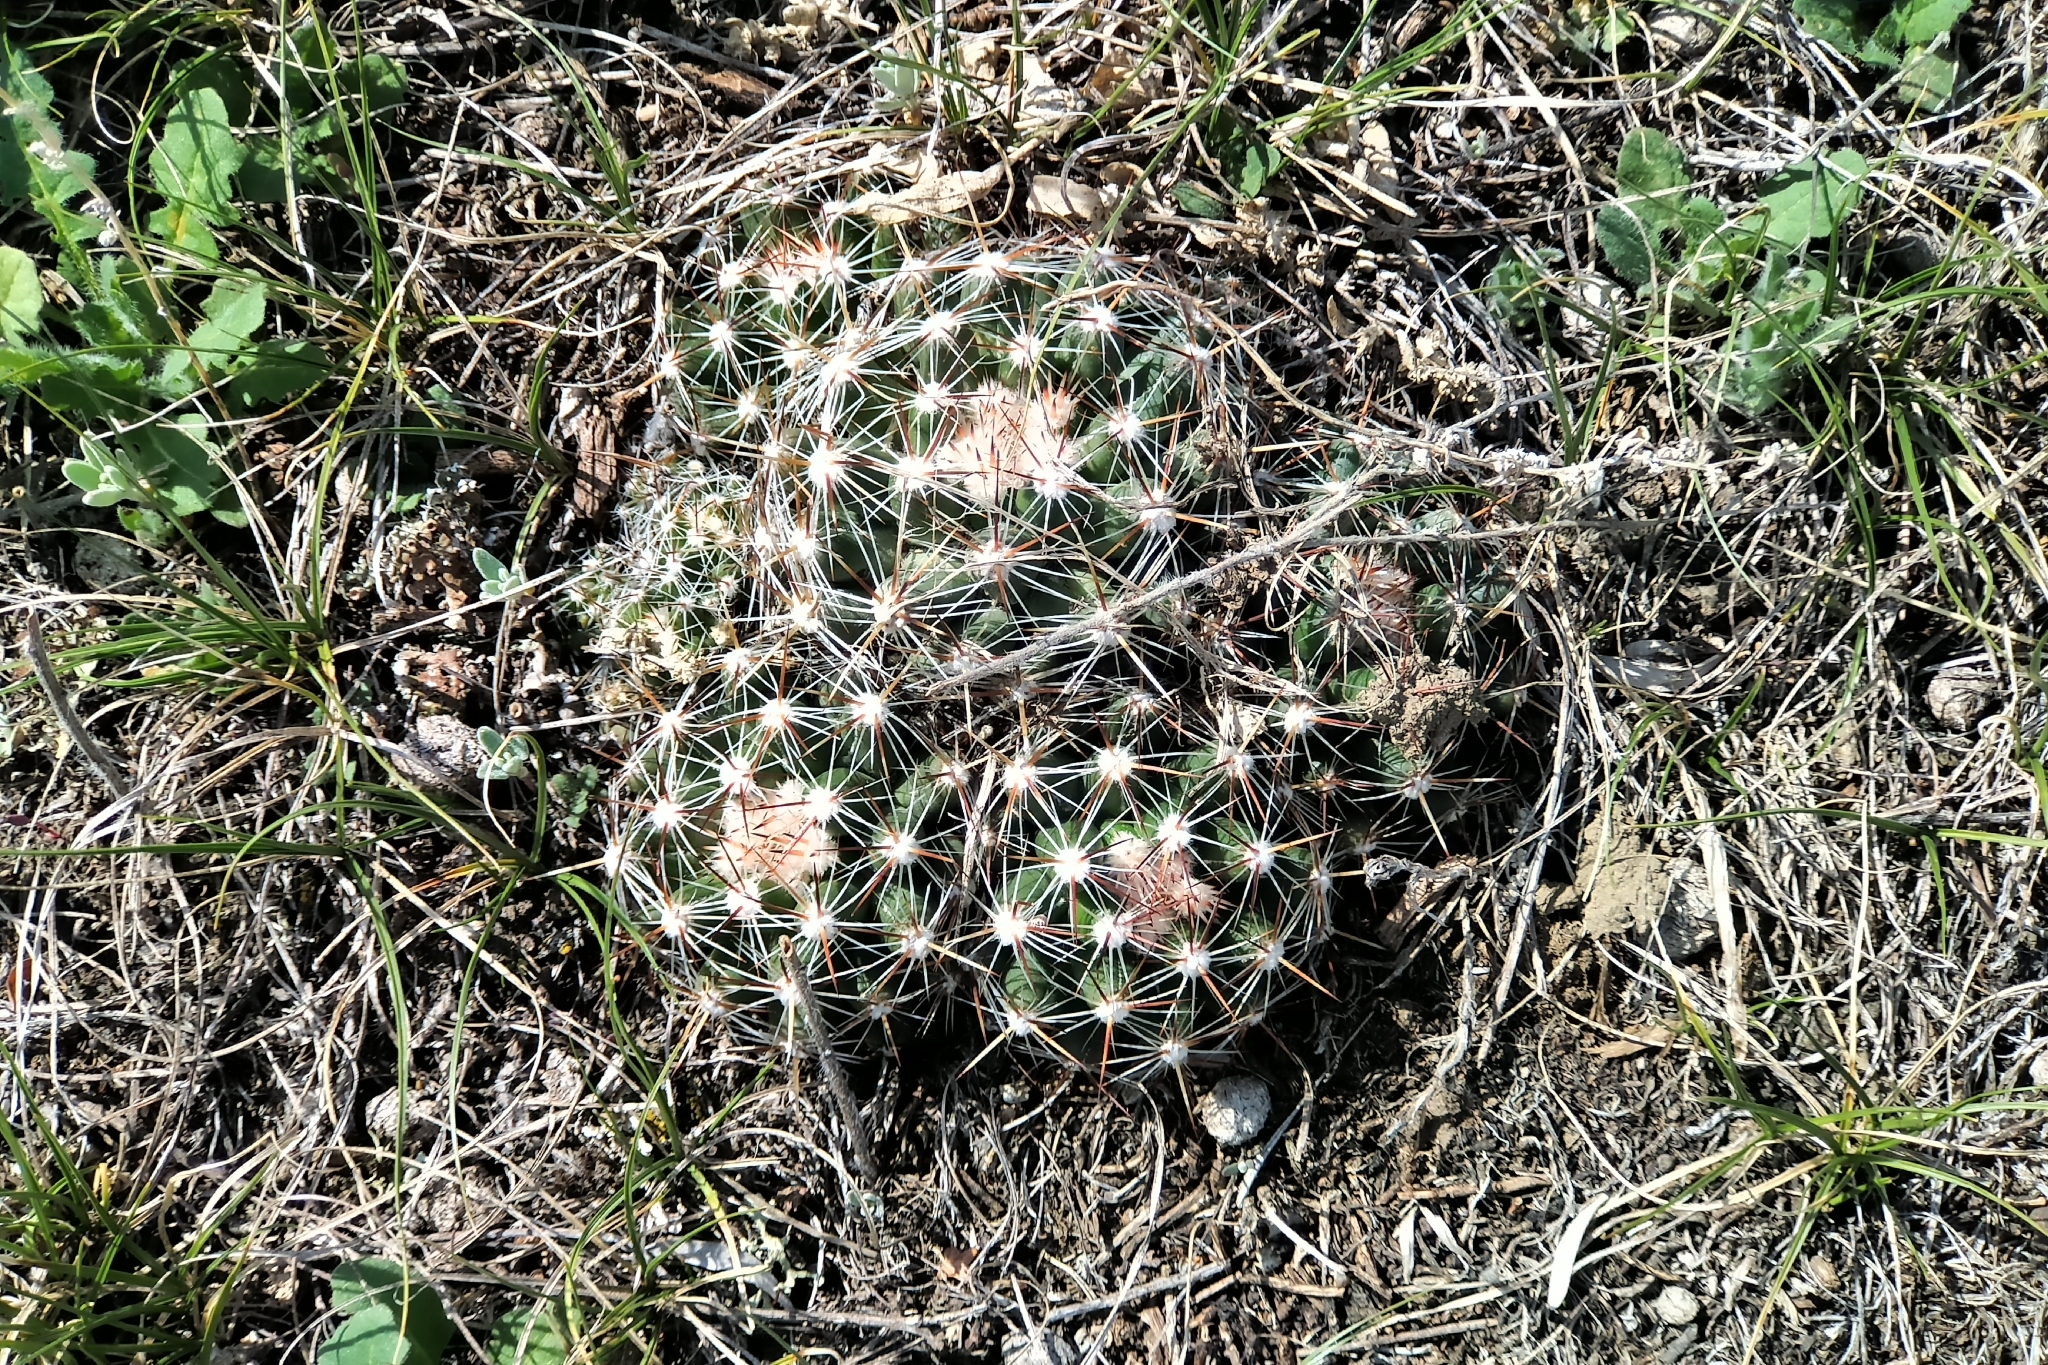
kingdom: Plantae
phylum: Tracheophyta
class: Magnoliopsida
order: Caryophyllales
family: Cactaceae
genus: Pelecyphora
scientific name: Pelecyphora vivipara
